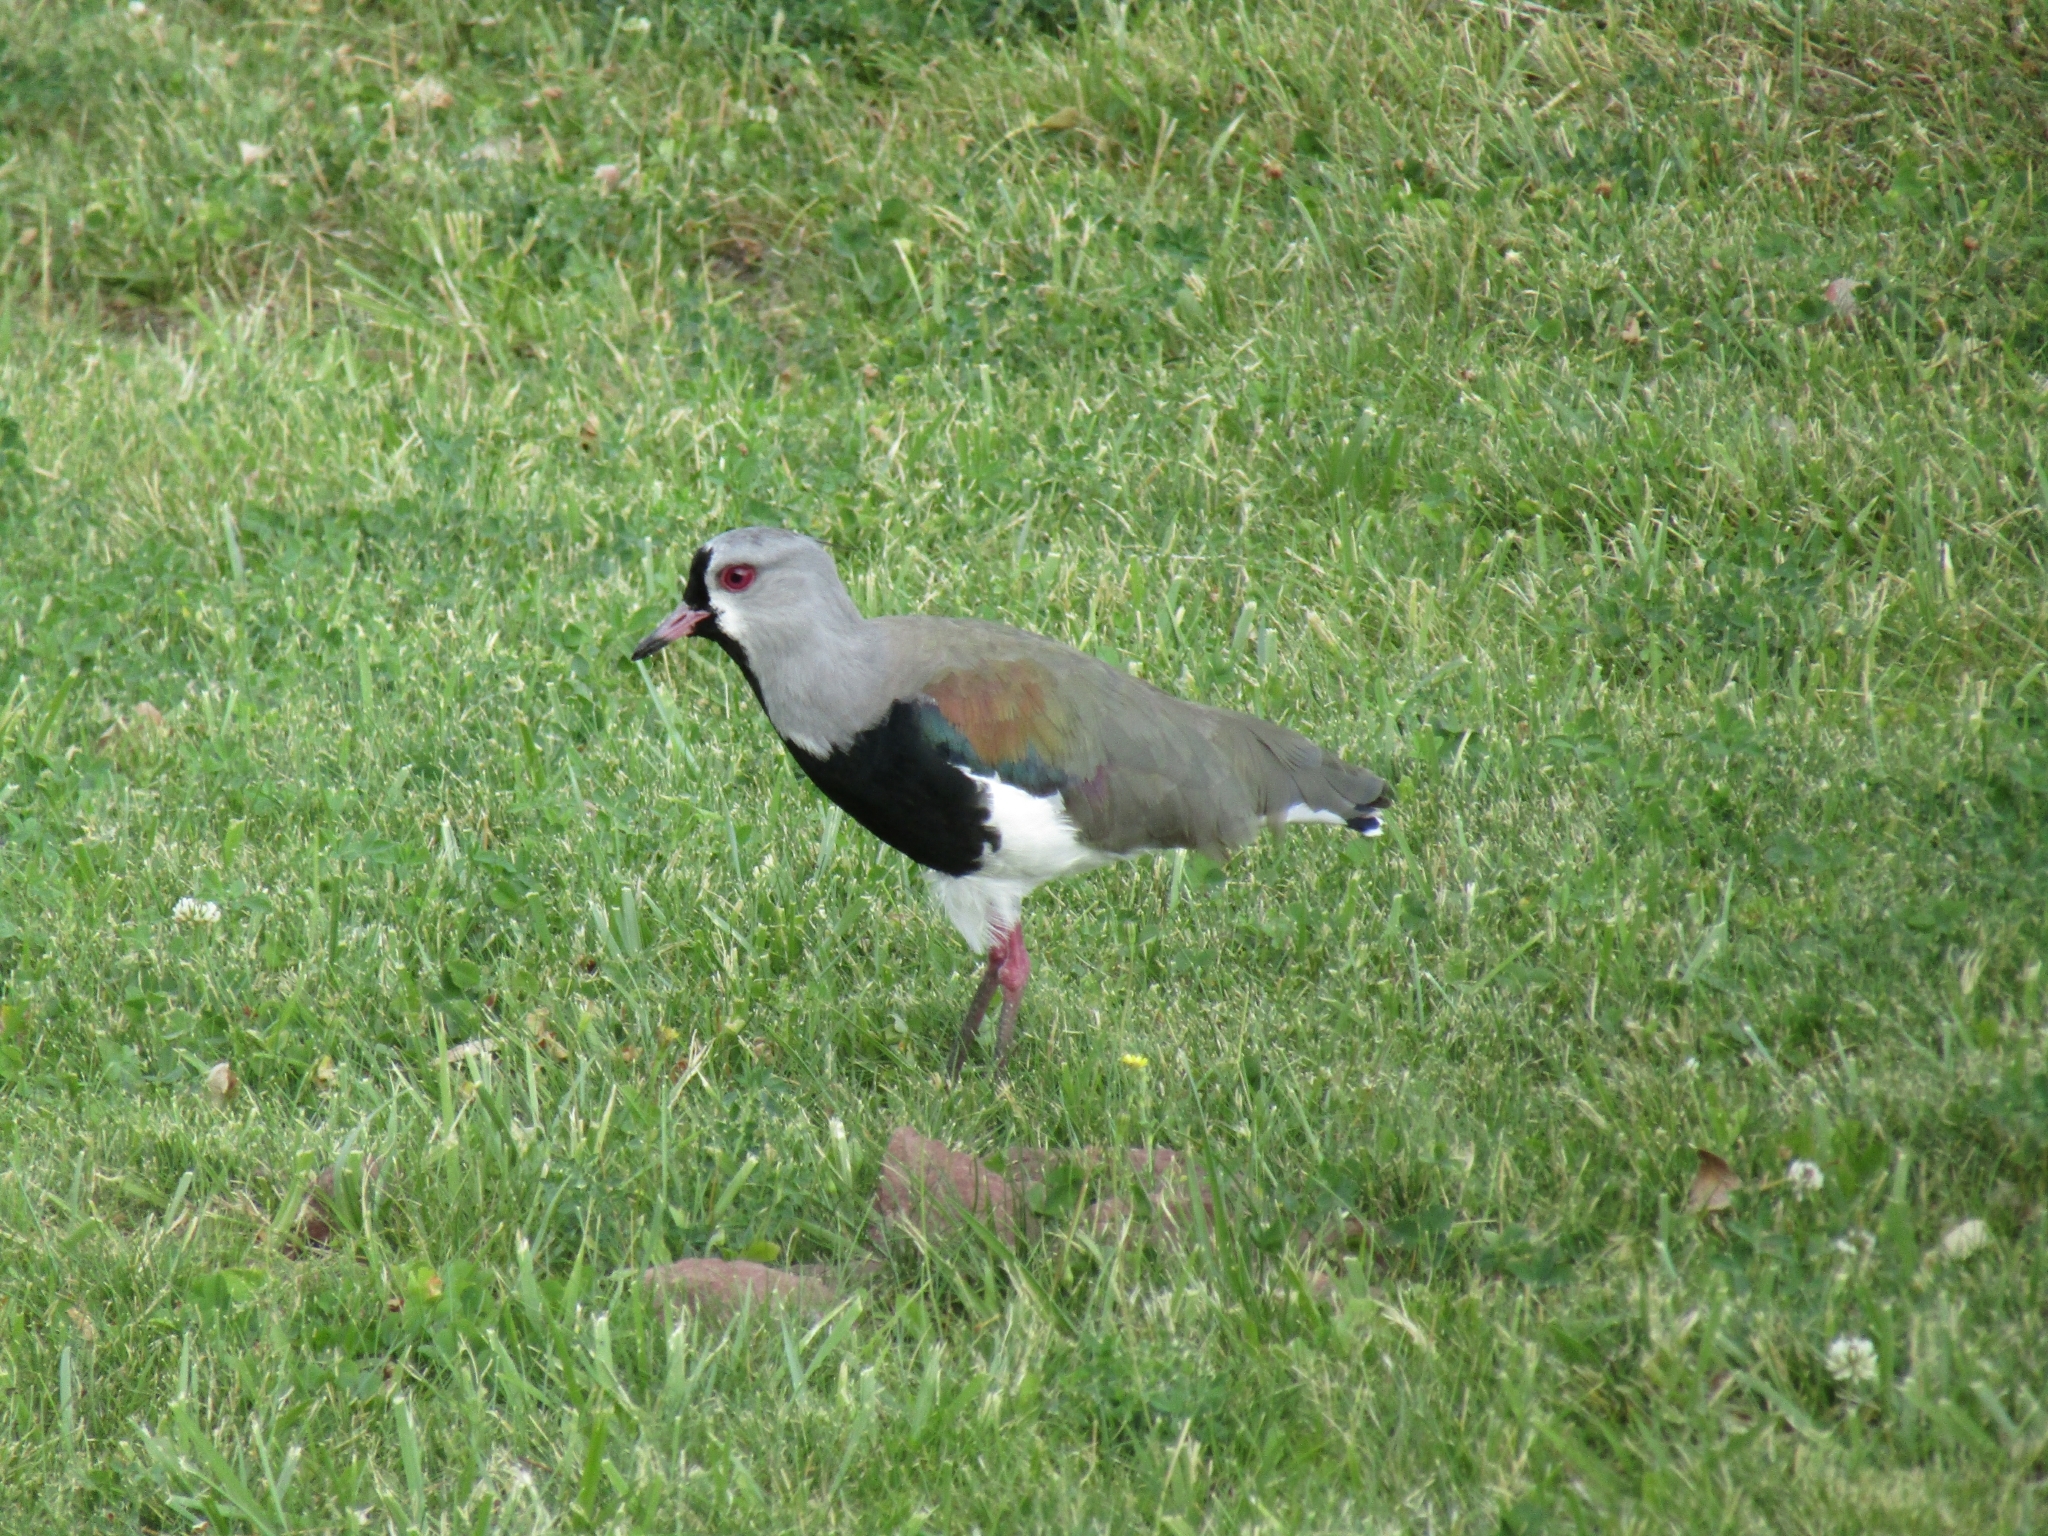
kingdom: Animalia
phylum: Chordata
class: Aves
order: Charadriiformes
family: Charadriidae
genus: Vanellus
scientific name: Vanellus chilensis
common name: Southern lapwing
